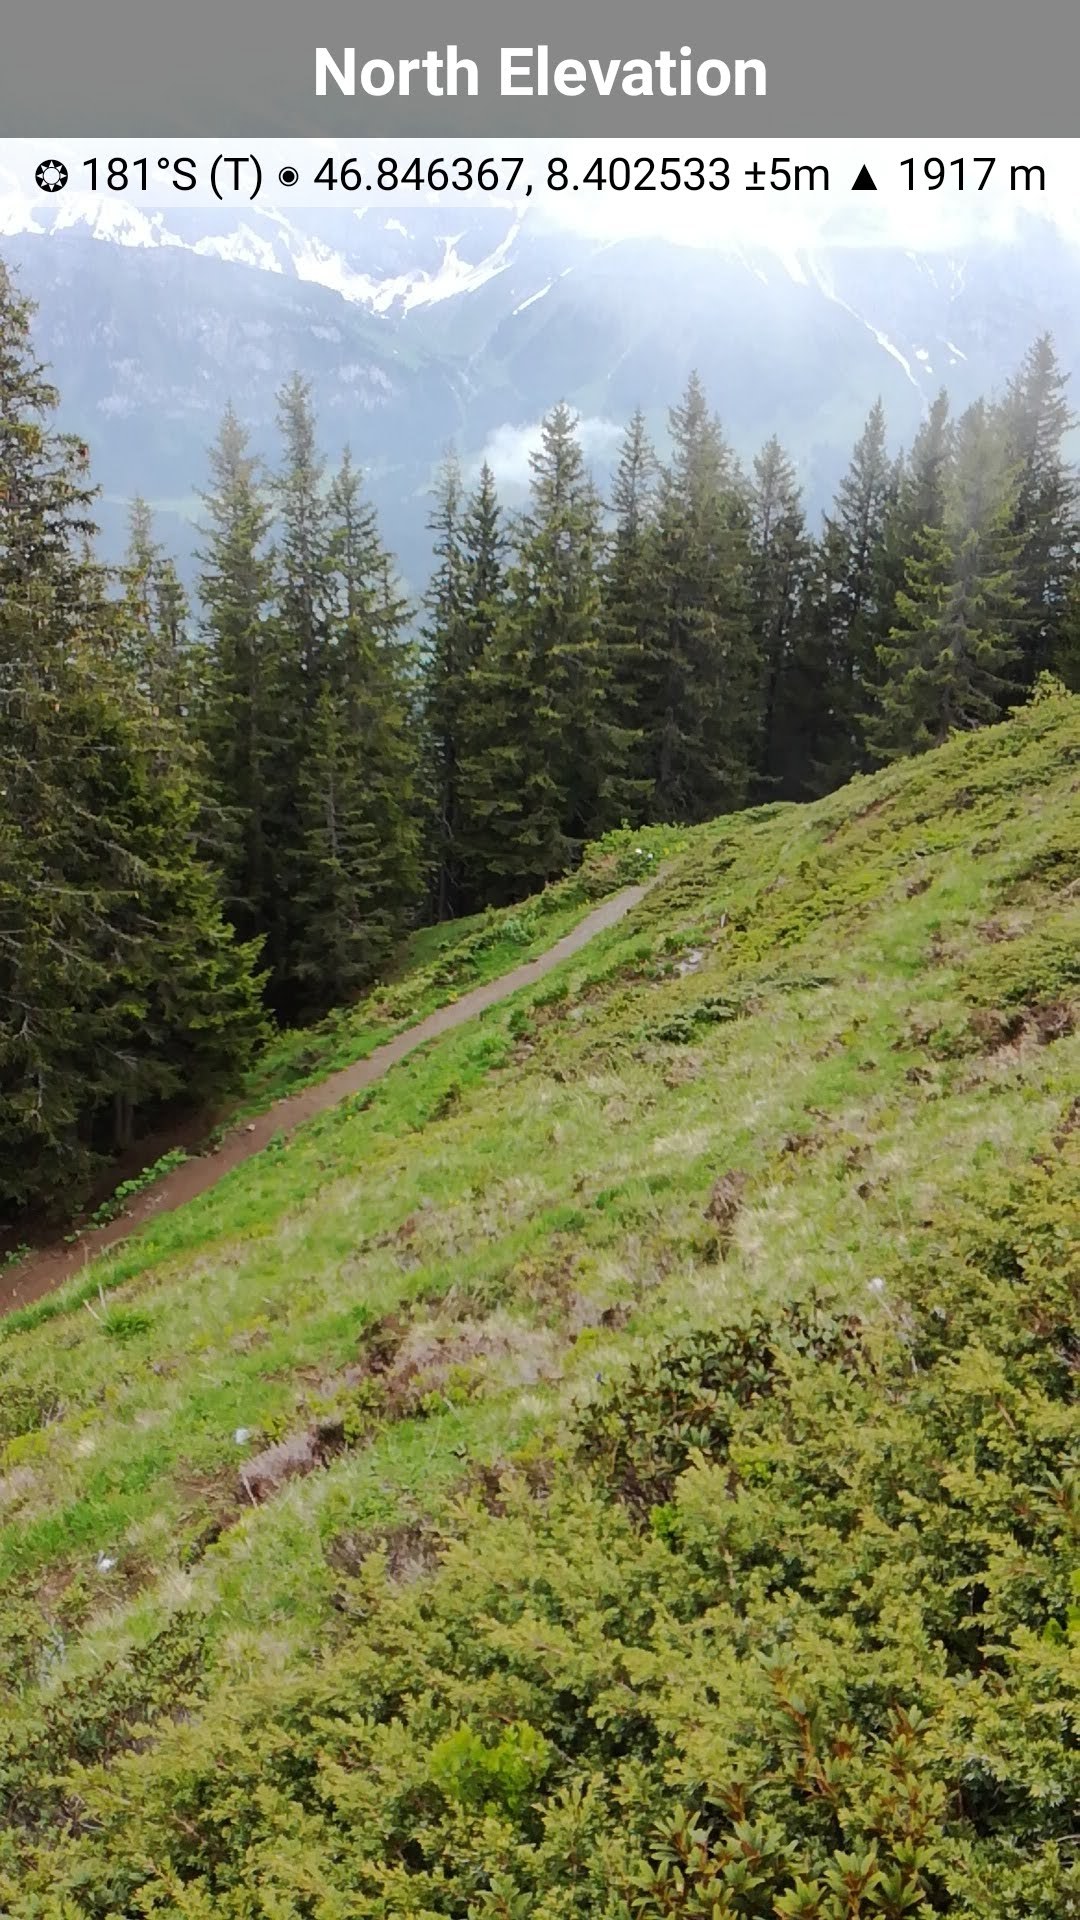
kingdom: Plantae
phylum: Tracheophyta
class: Magnoliopsida
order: Ericales
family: Ericaceae
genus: Rhododendron
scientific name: Rhododendron ferrugineum
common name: Alpenrose
